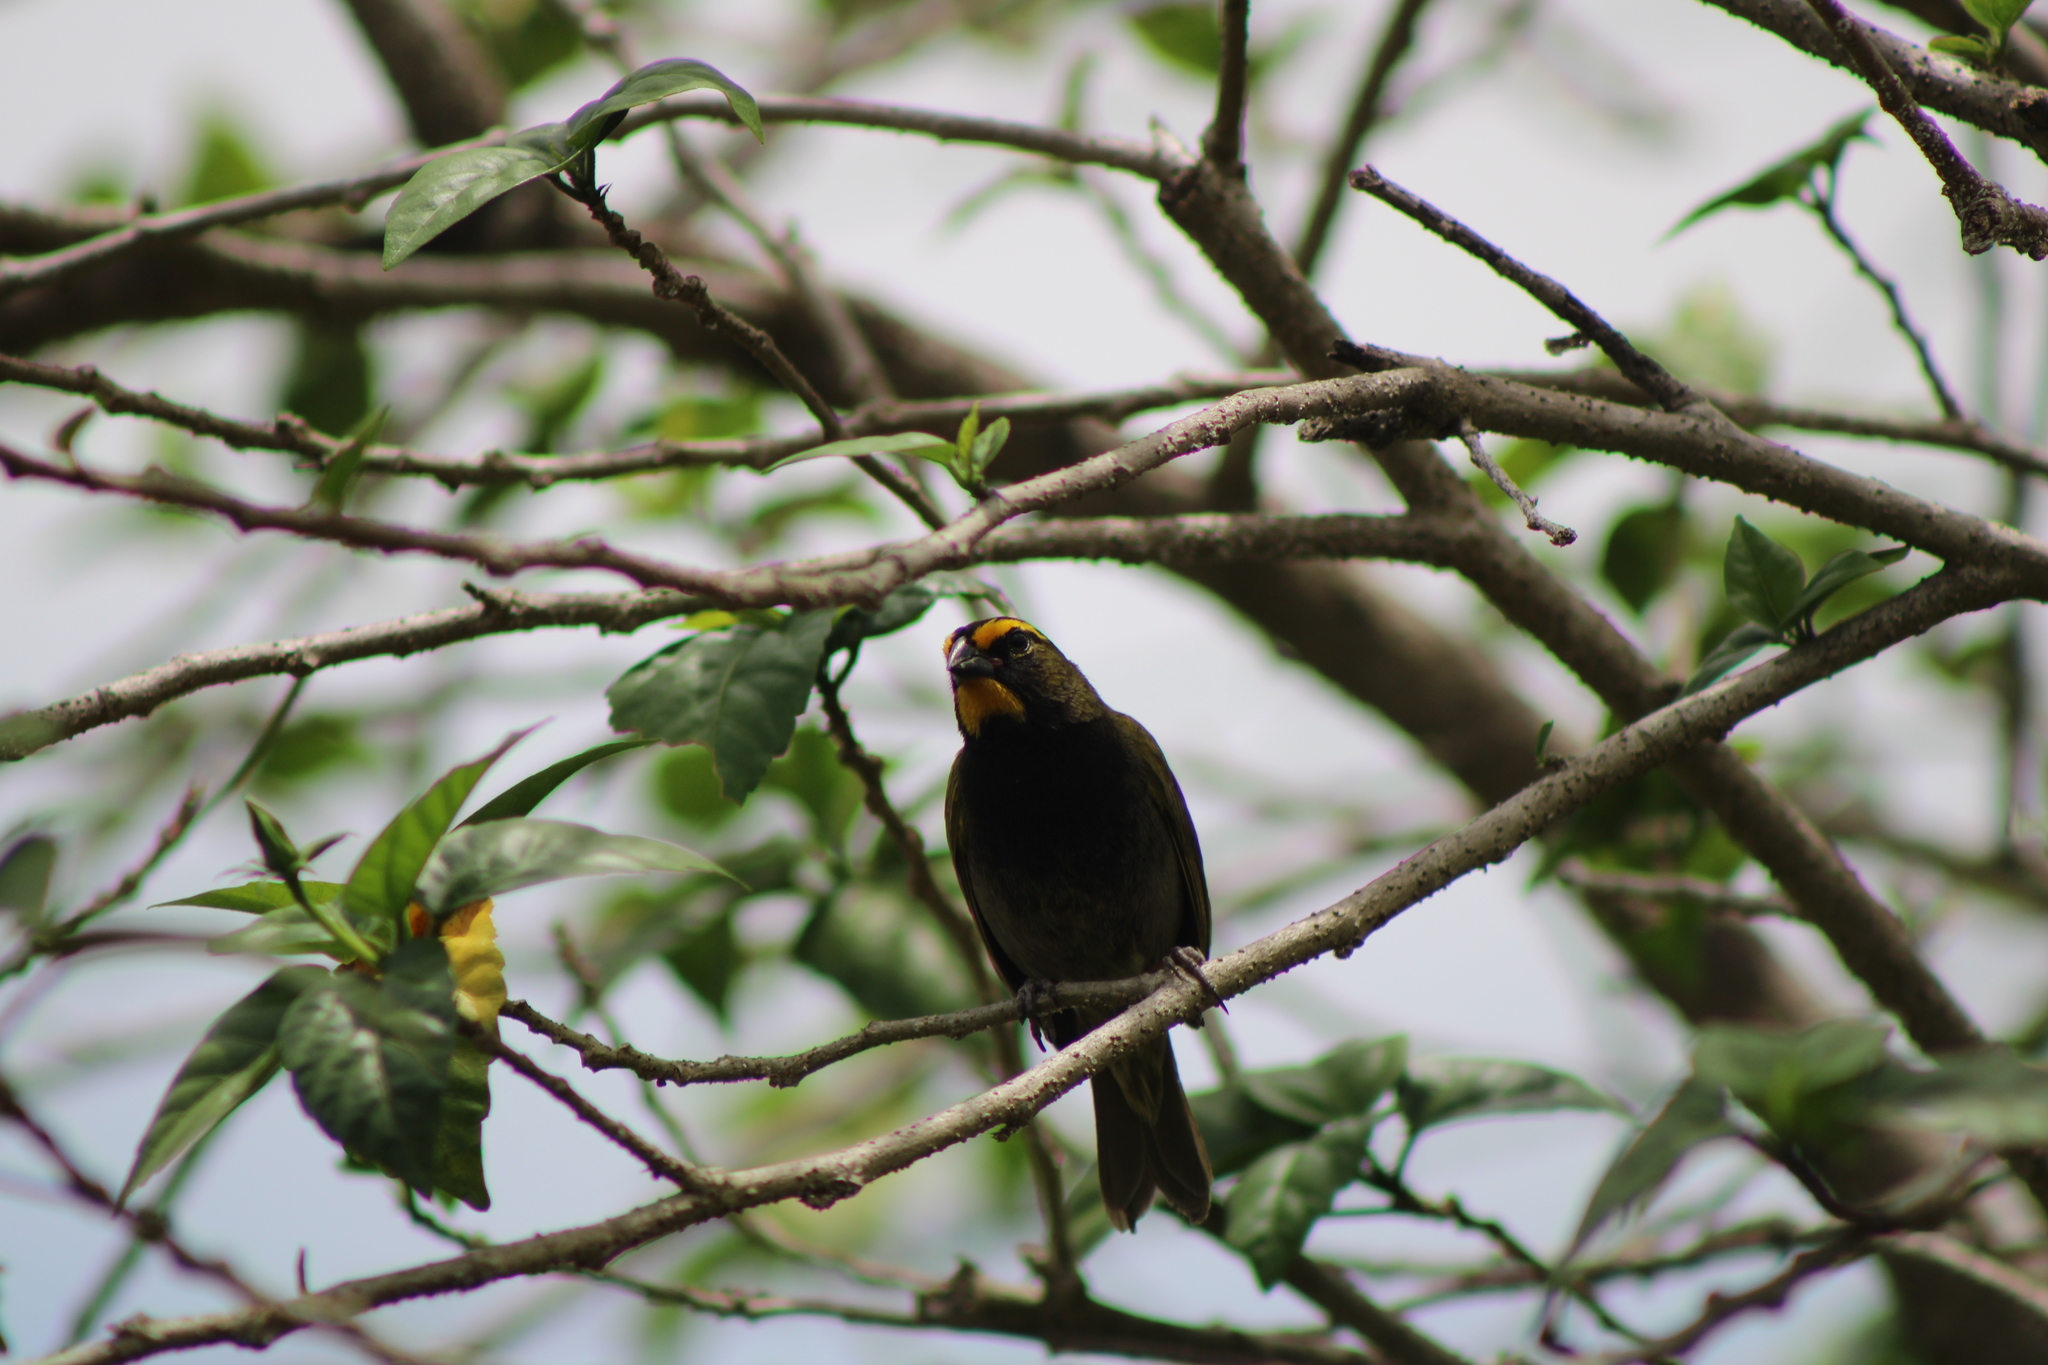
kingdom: Animalia
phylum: Chordata
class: Aves
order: Passeriformes
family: Thraupidae
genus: Tiaris
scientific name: Tiaris olivaceus
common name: Yellow-faced grassquit
